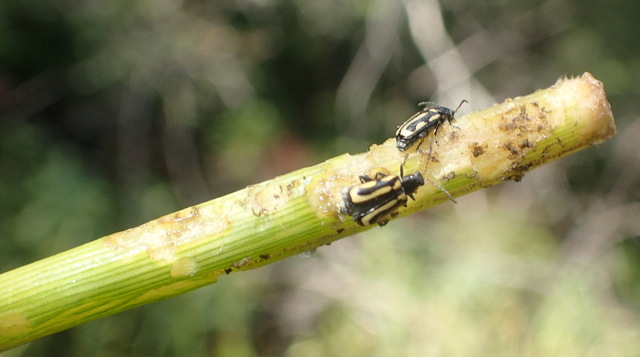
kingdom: Animalia
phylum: Arthropoda
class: Insecta
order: Coleoptera
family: Chrysomelidae
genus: Agasicles
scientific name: Agasicles hygrophila
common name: Alligatorweed flea beetle
